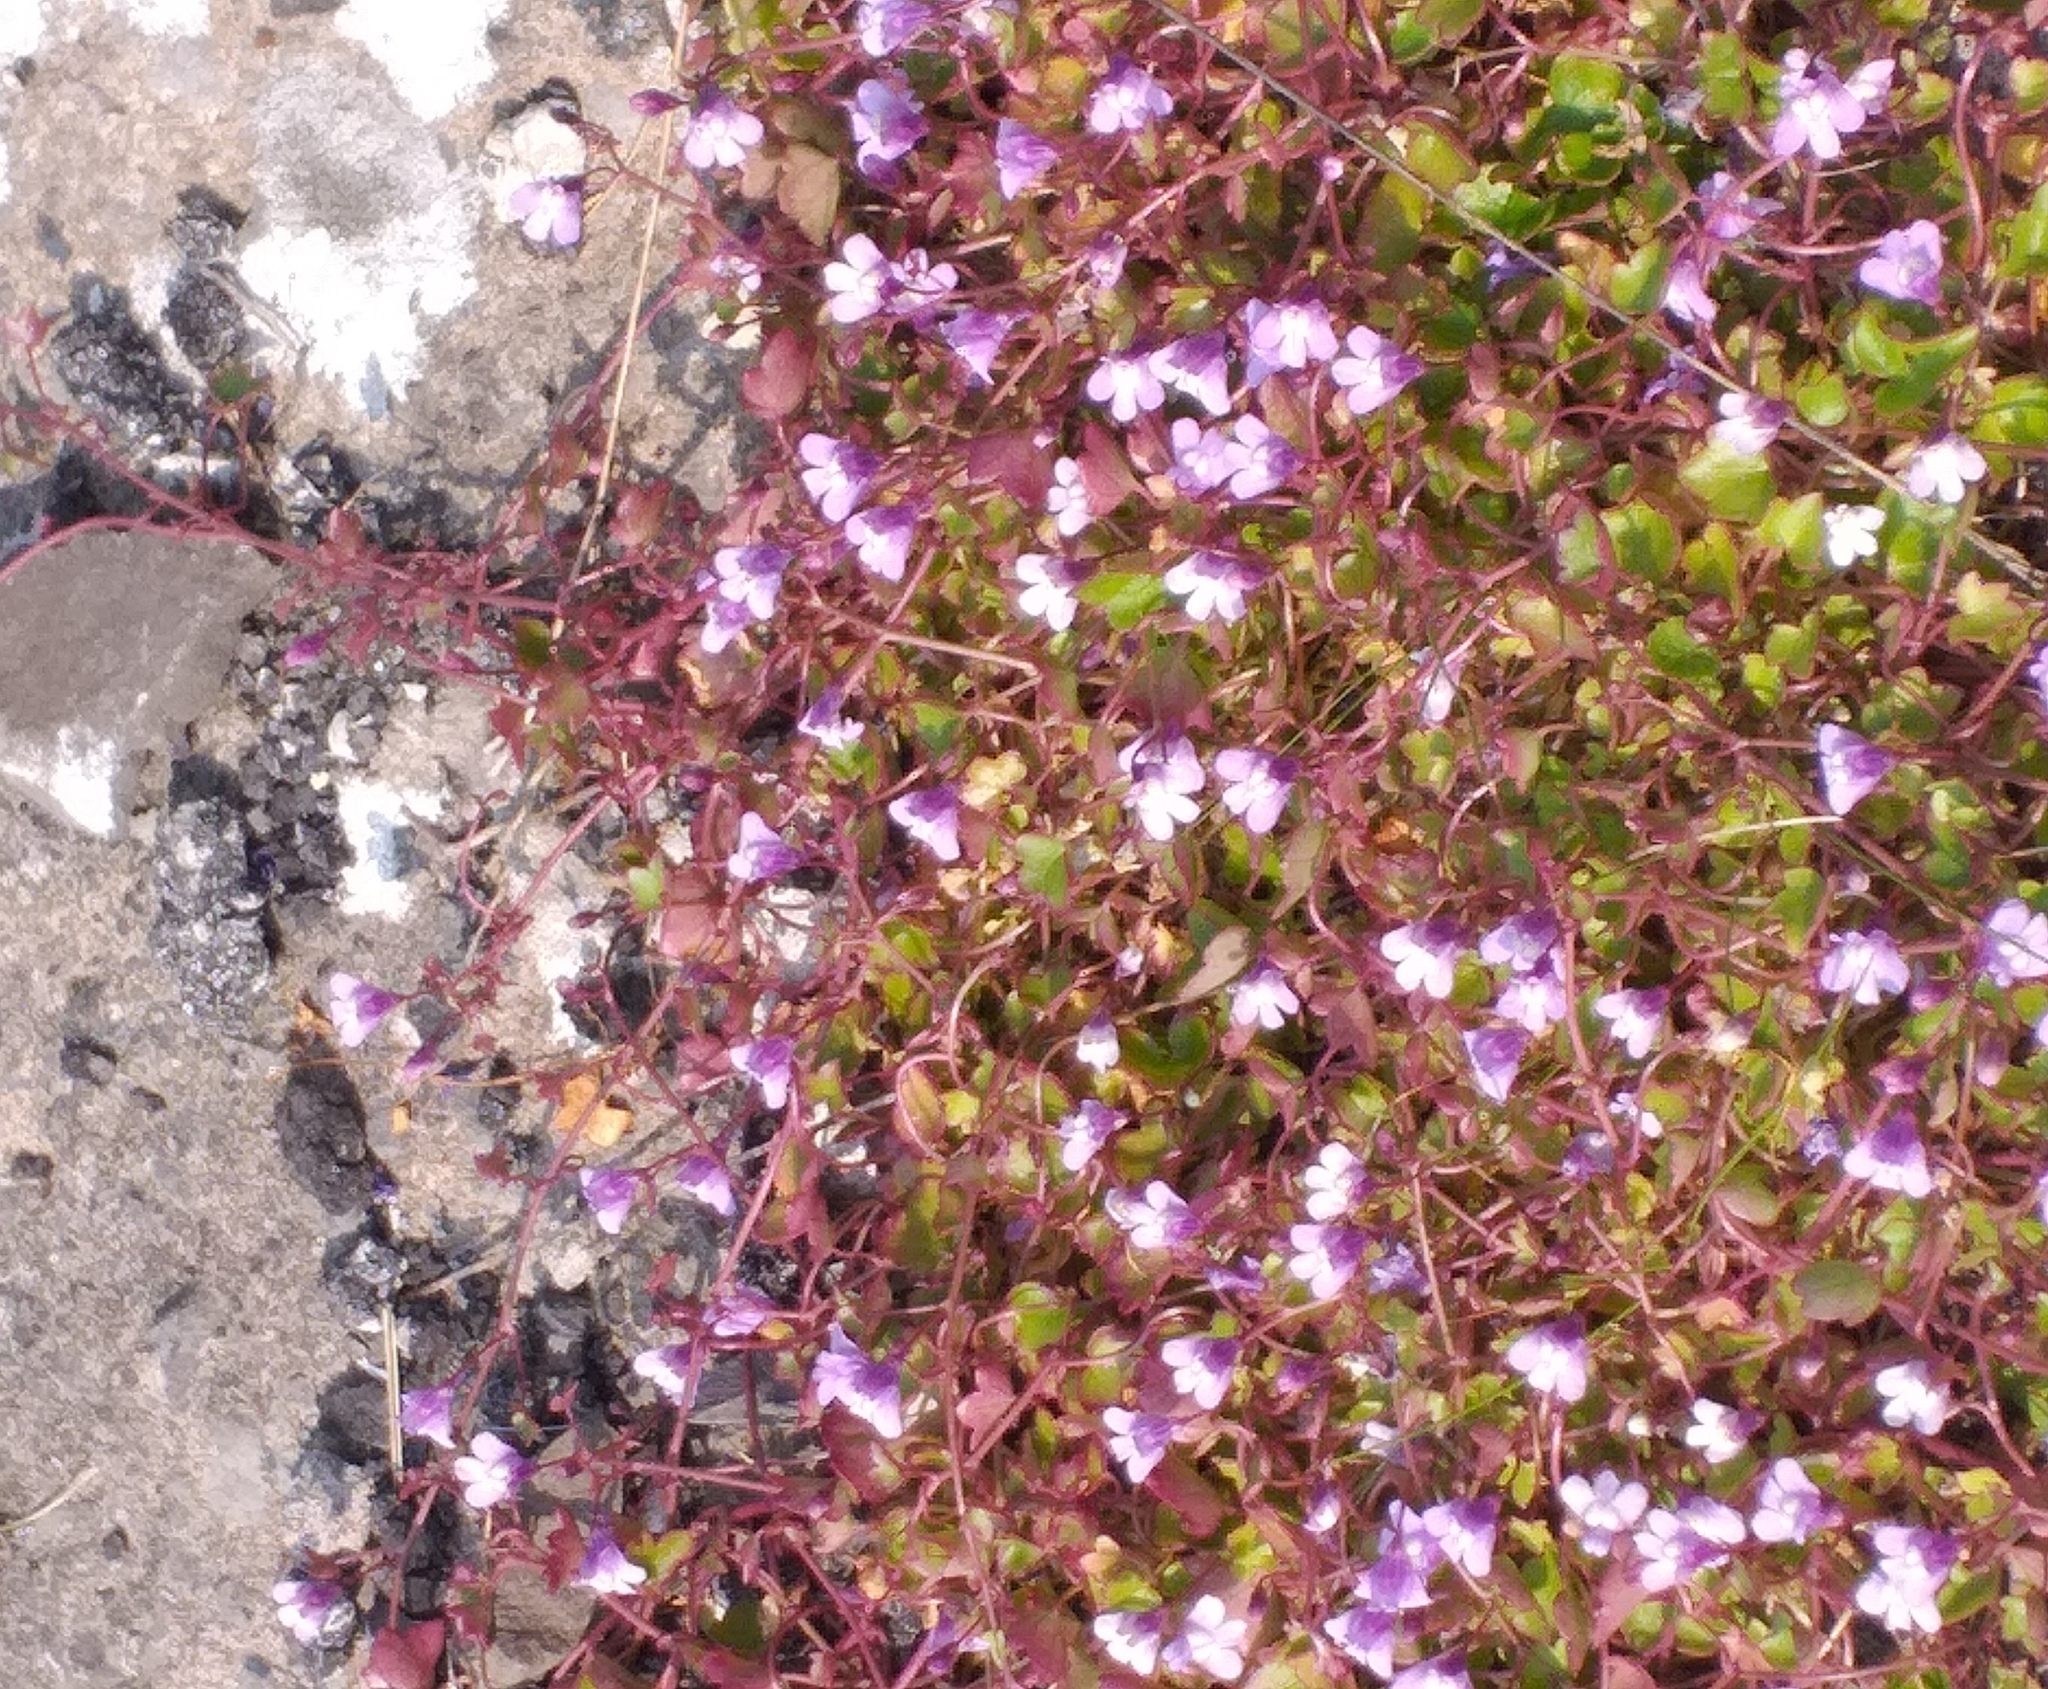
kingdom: Plantae
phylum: Tracheophyta
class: Magnoliopsida
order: Lamiales
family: Plantaginaceae
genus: Cymbalaria
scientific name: Cymbalaria muralis
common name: Ivy-leaved toadflax
